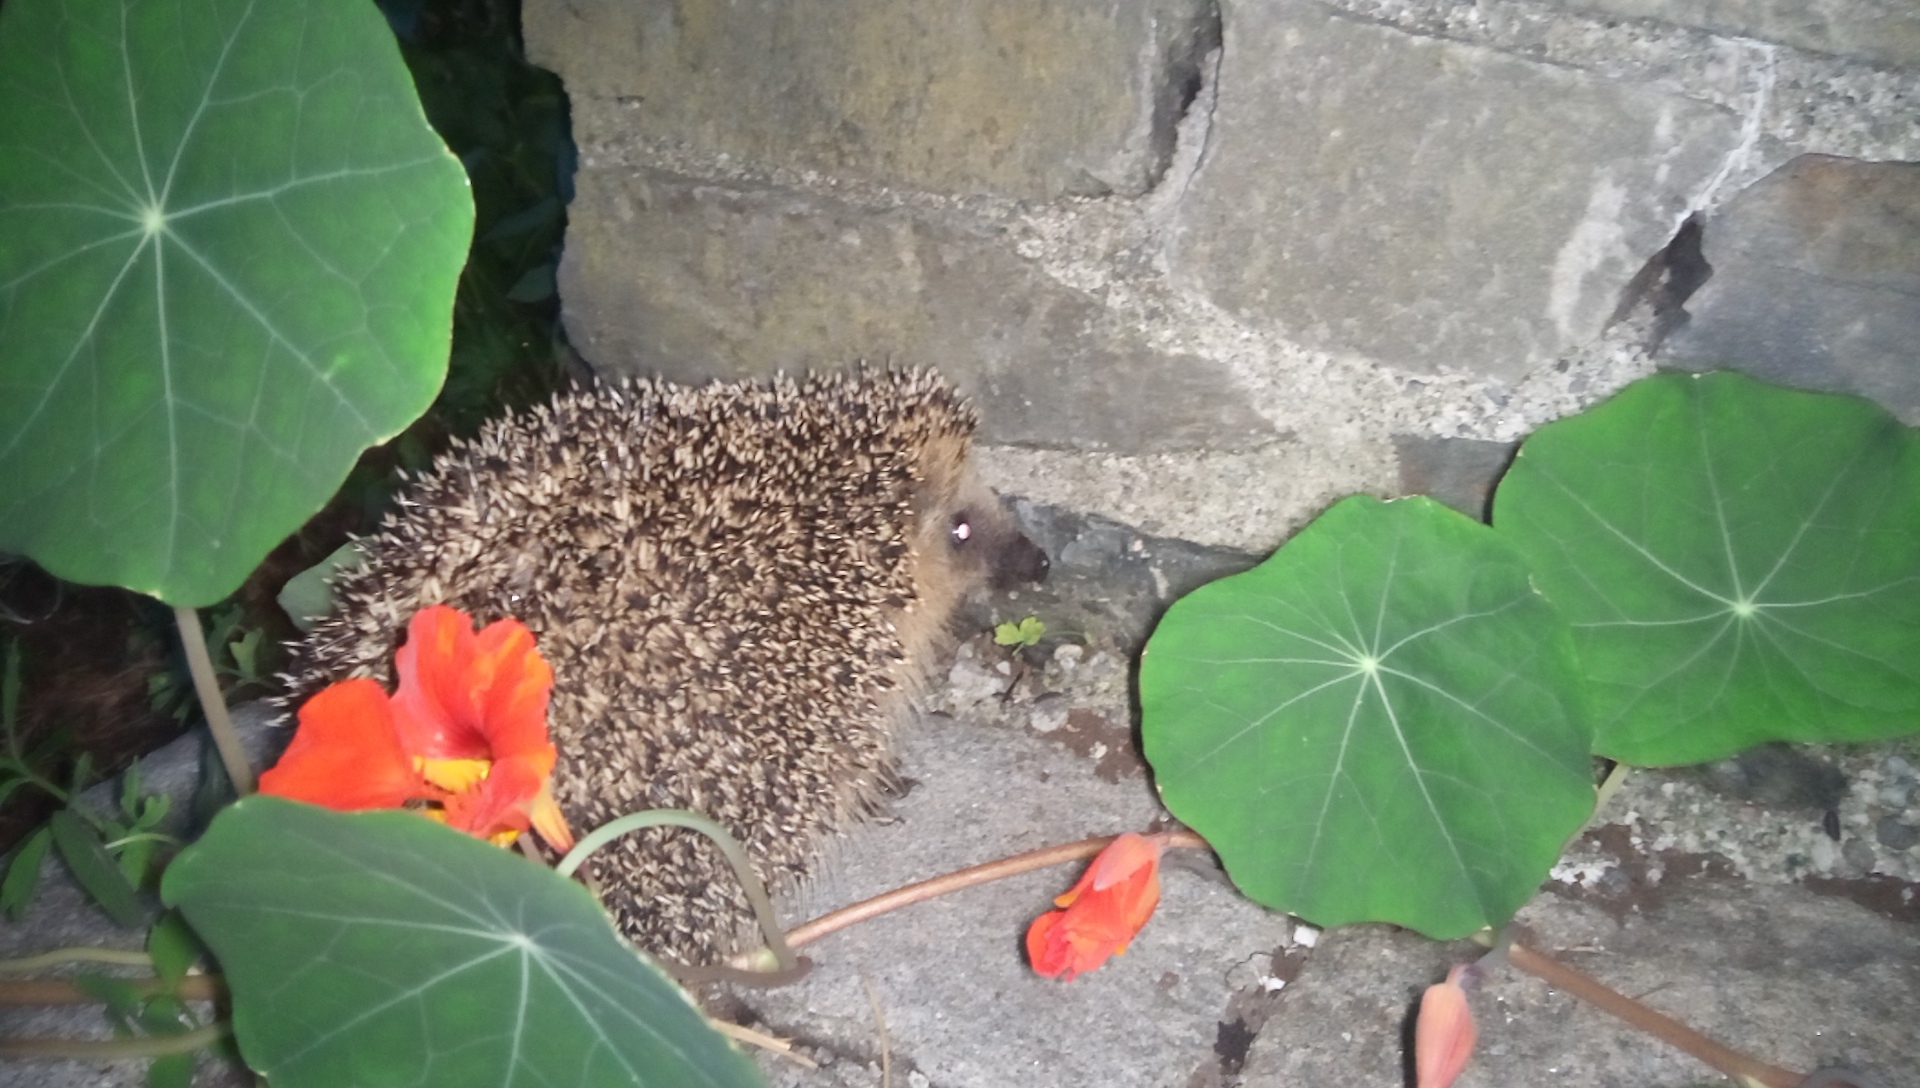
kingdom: Animalia
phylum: Chordata
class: Mammalia
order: Erinaceomorpha
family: Erinaceidae
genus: Erinaceus
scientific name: Erinaceus europaeus
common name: West european hedgehog
